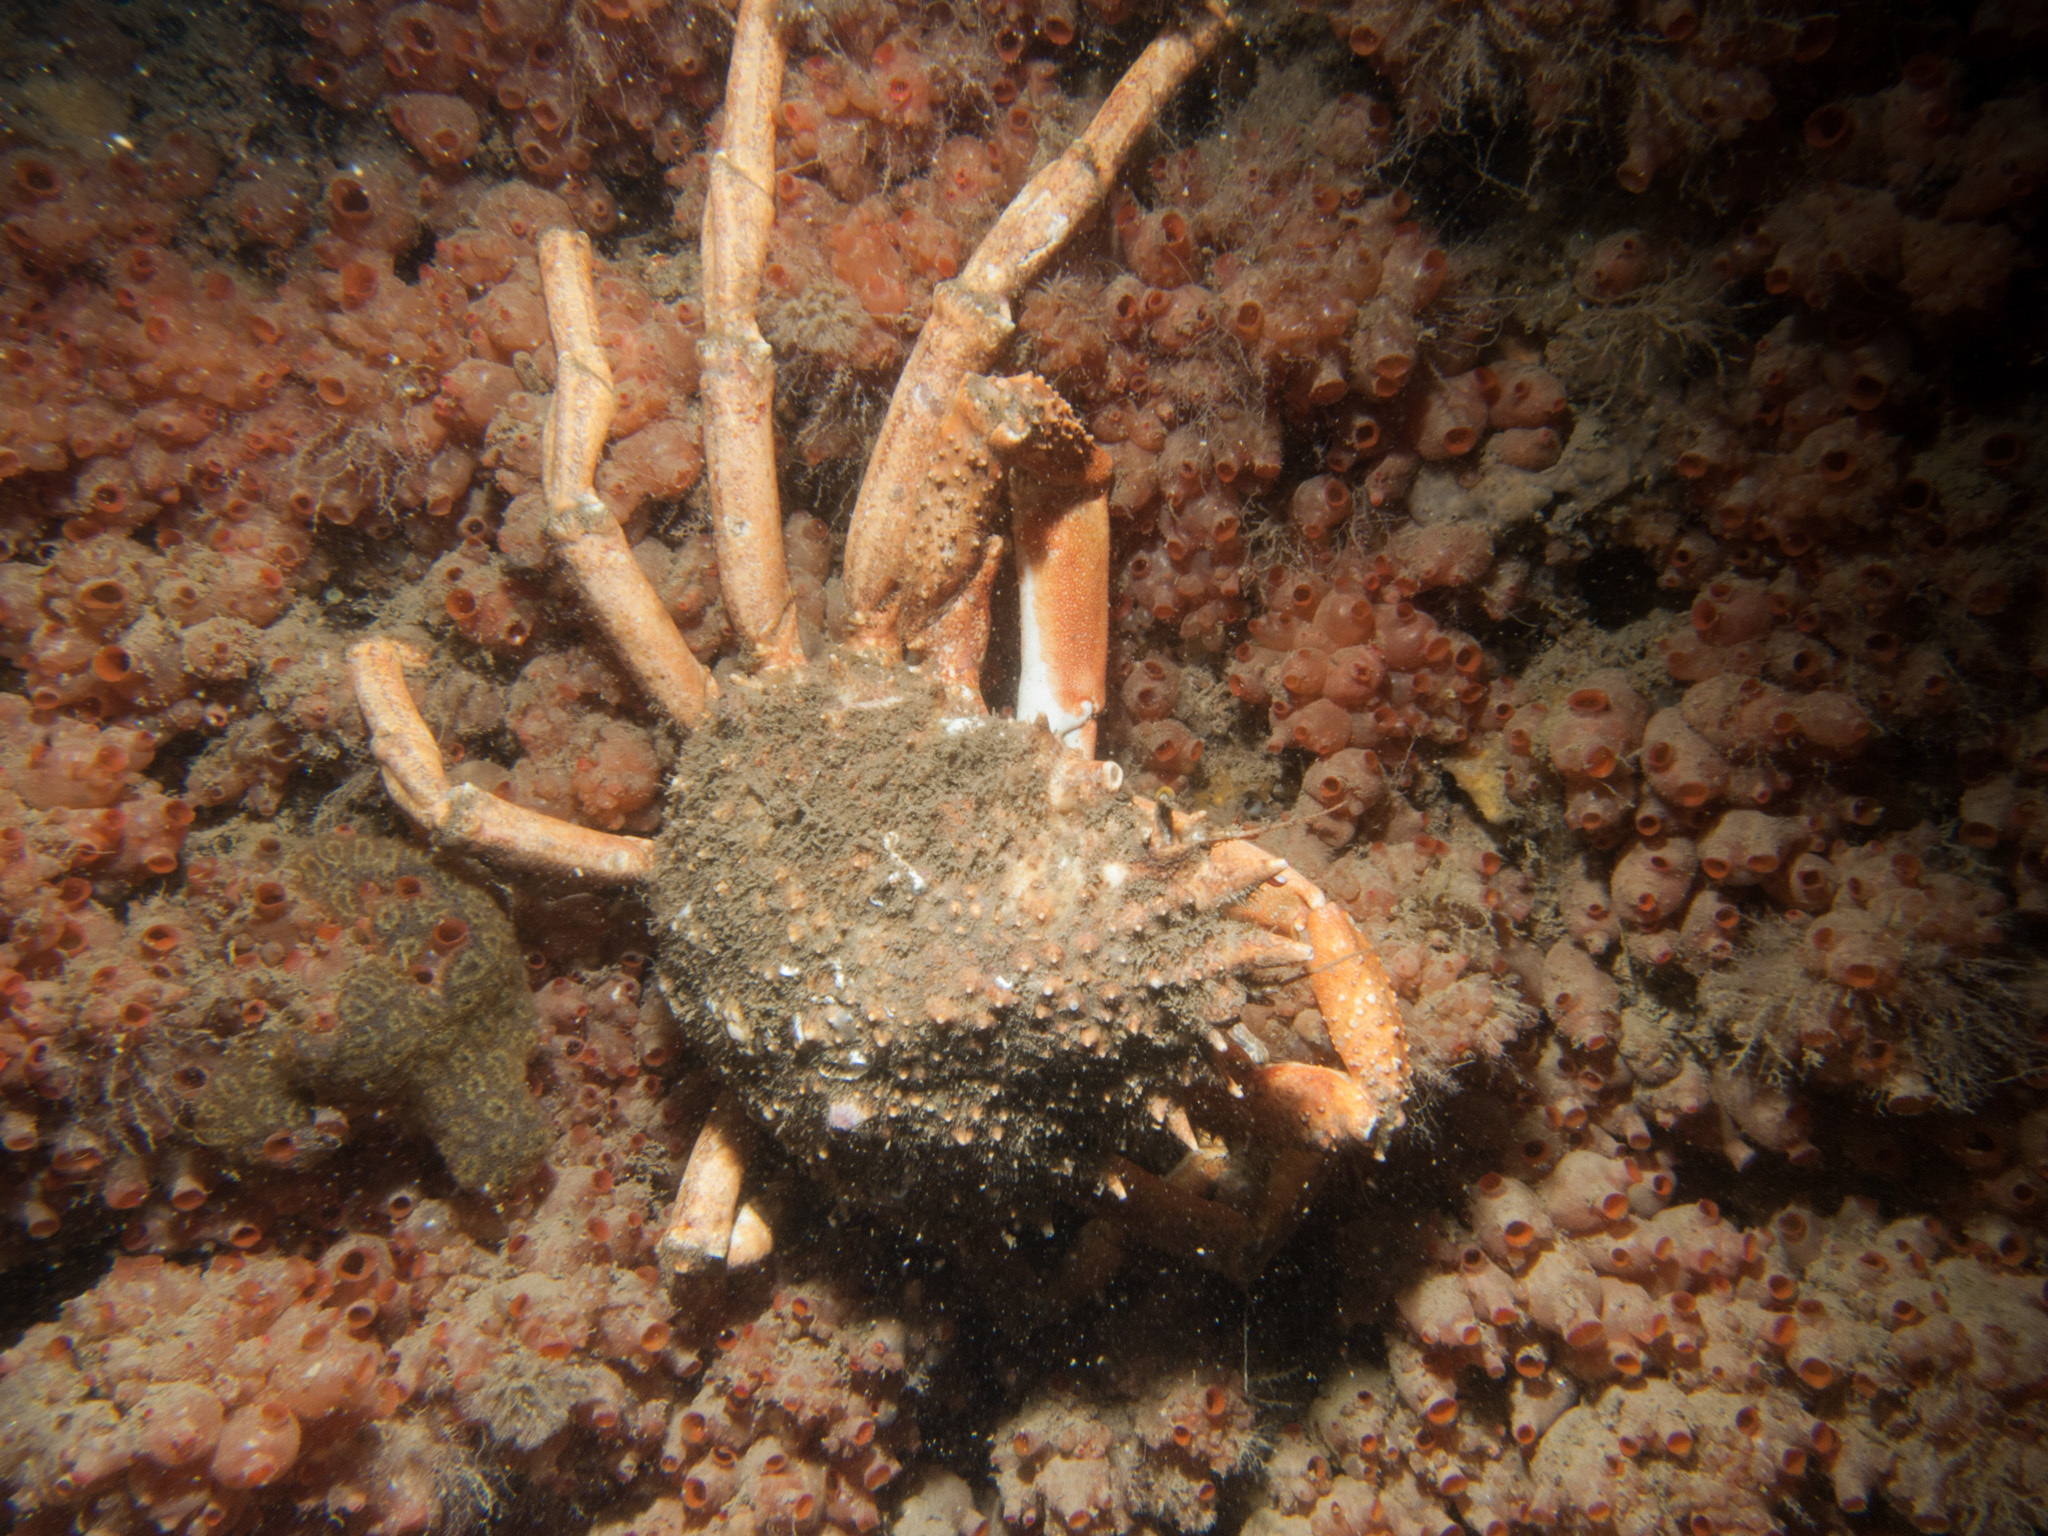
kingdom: Animalia
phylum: Arthropoda
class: Malacostraca
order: Decapoda
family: Majidae
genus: Maja
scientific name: Maja brachydactyla
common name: Common spider crab
